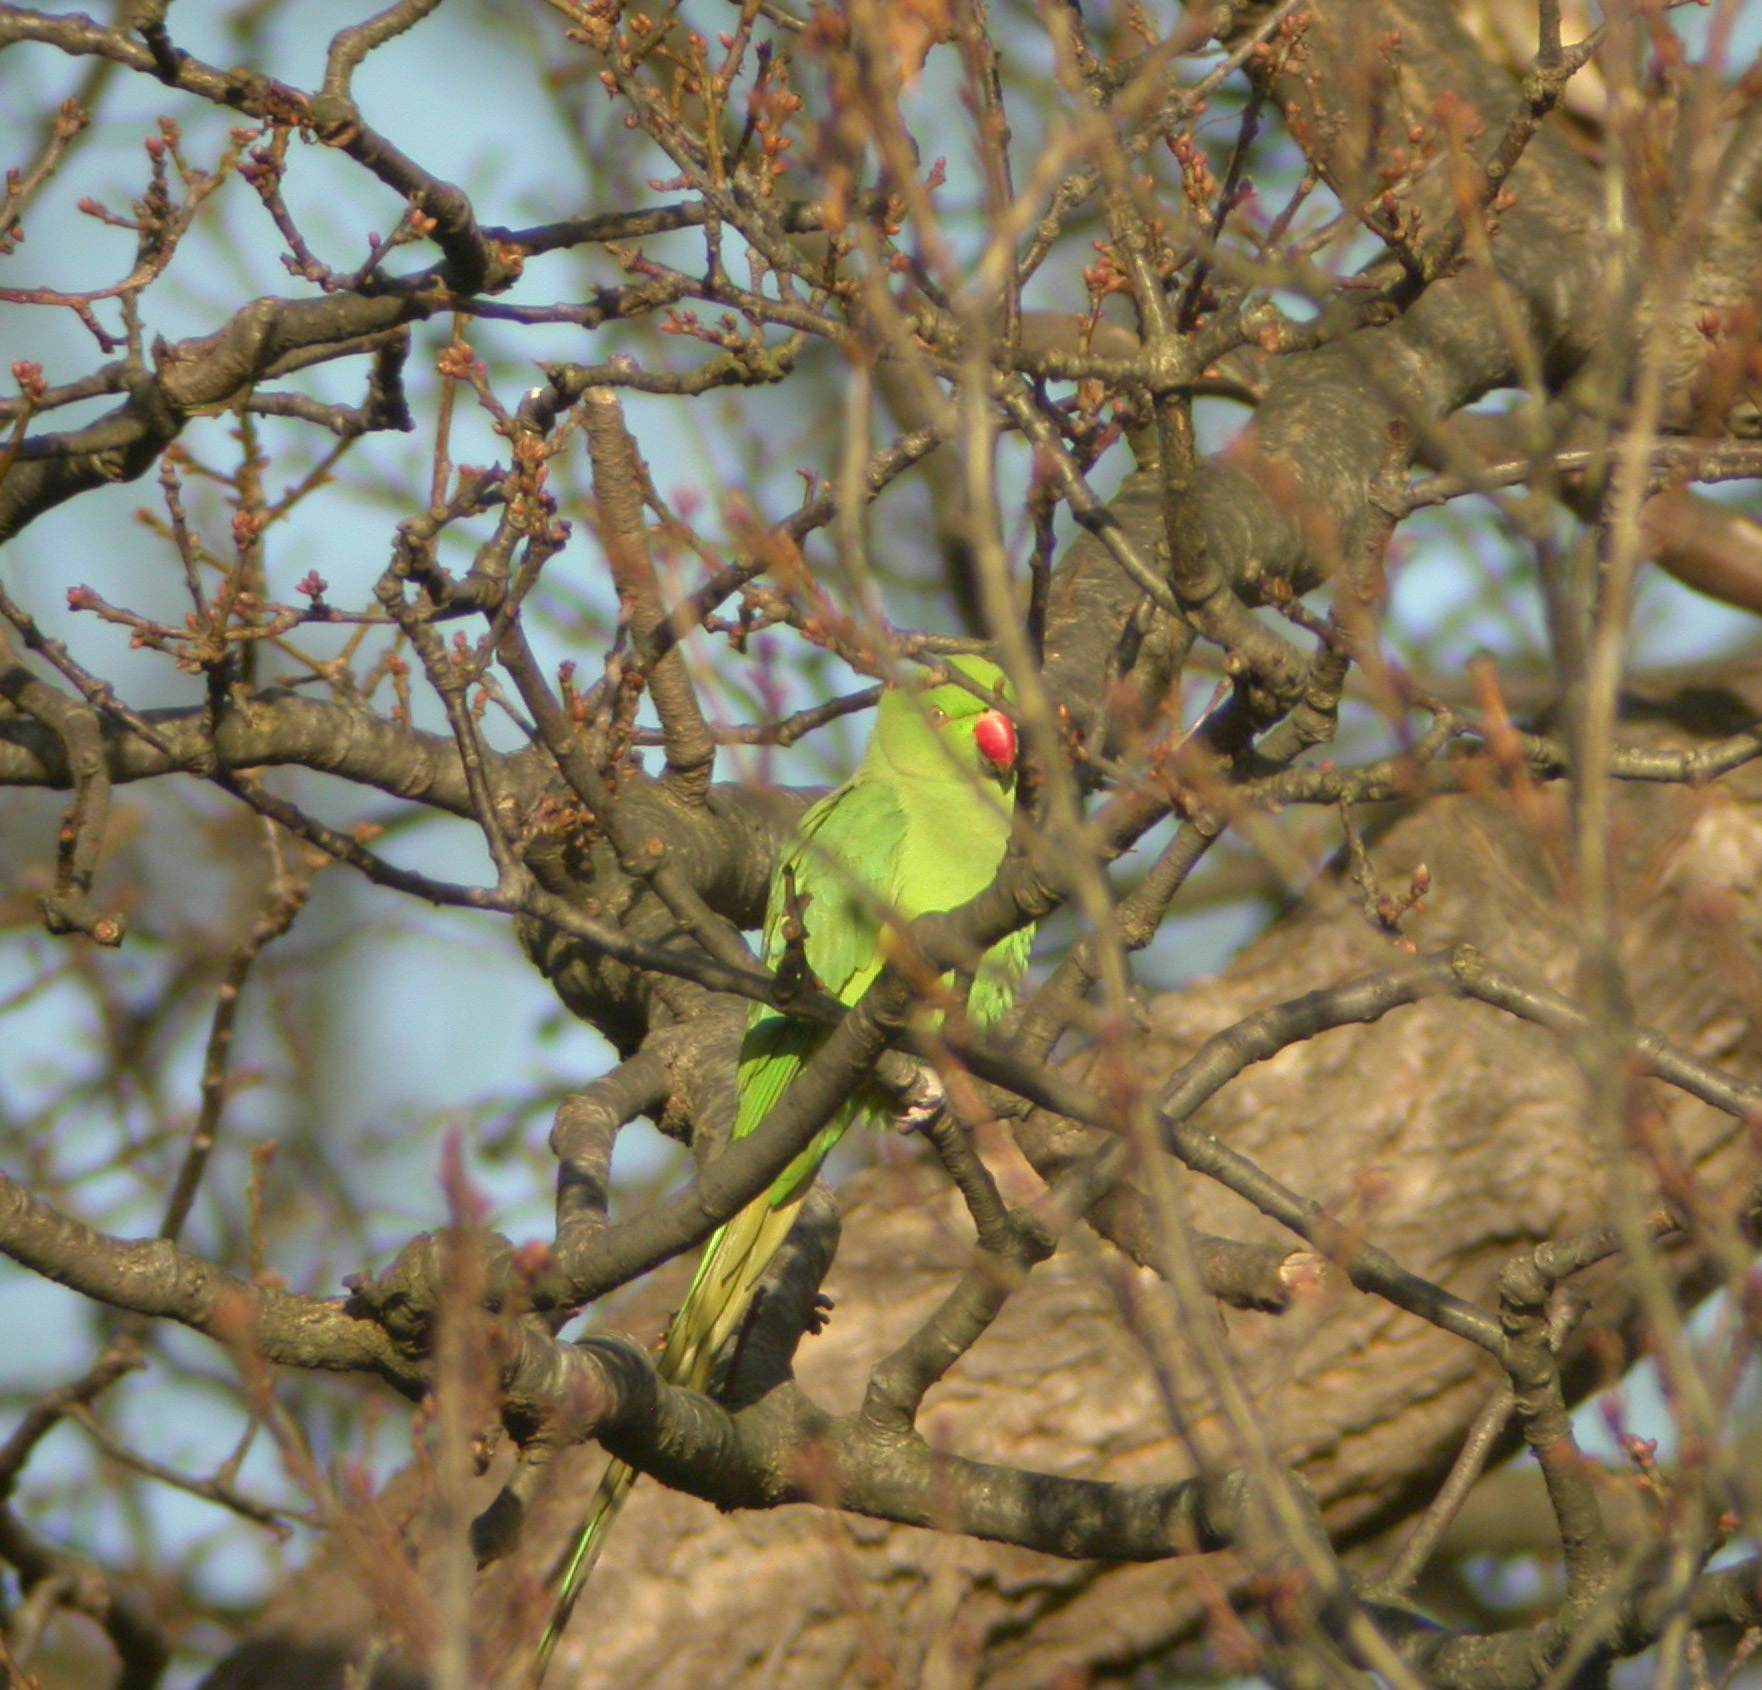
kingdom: Animalia
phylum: Chordata
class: Aves
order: Psittaciformes
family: Psittacidae
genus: Psittacula
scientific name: Psittacula krameri
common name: Rose-ringed parakeet
